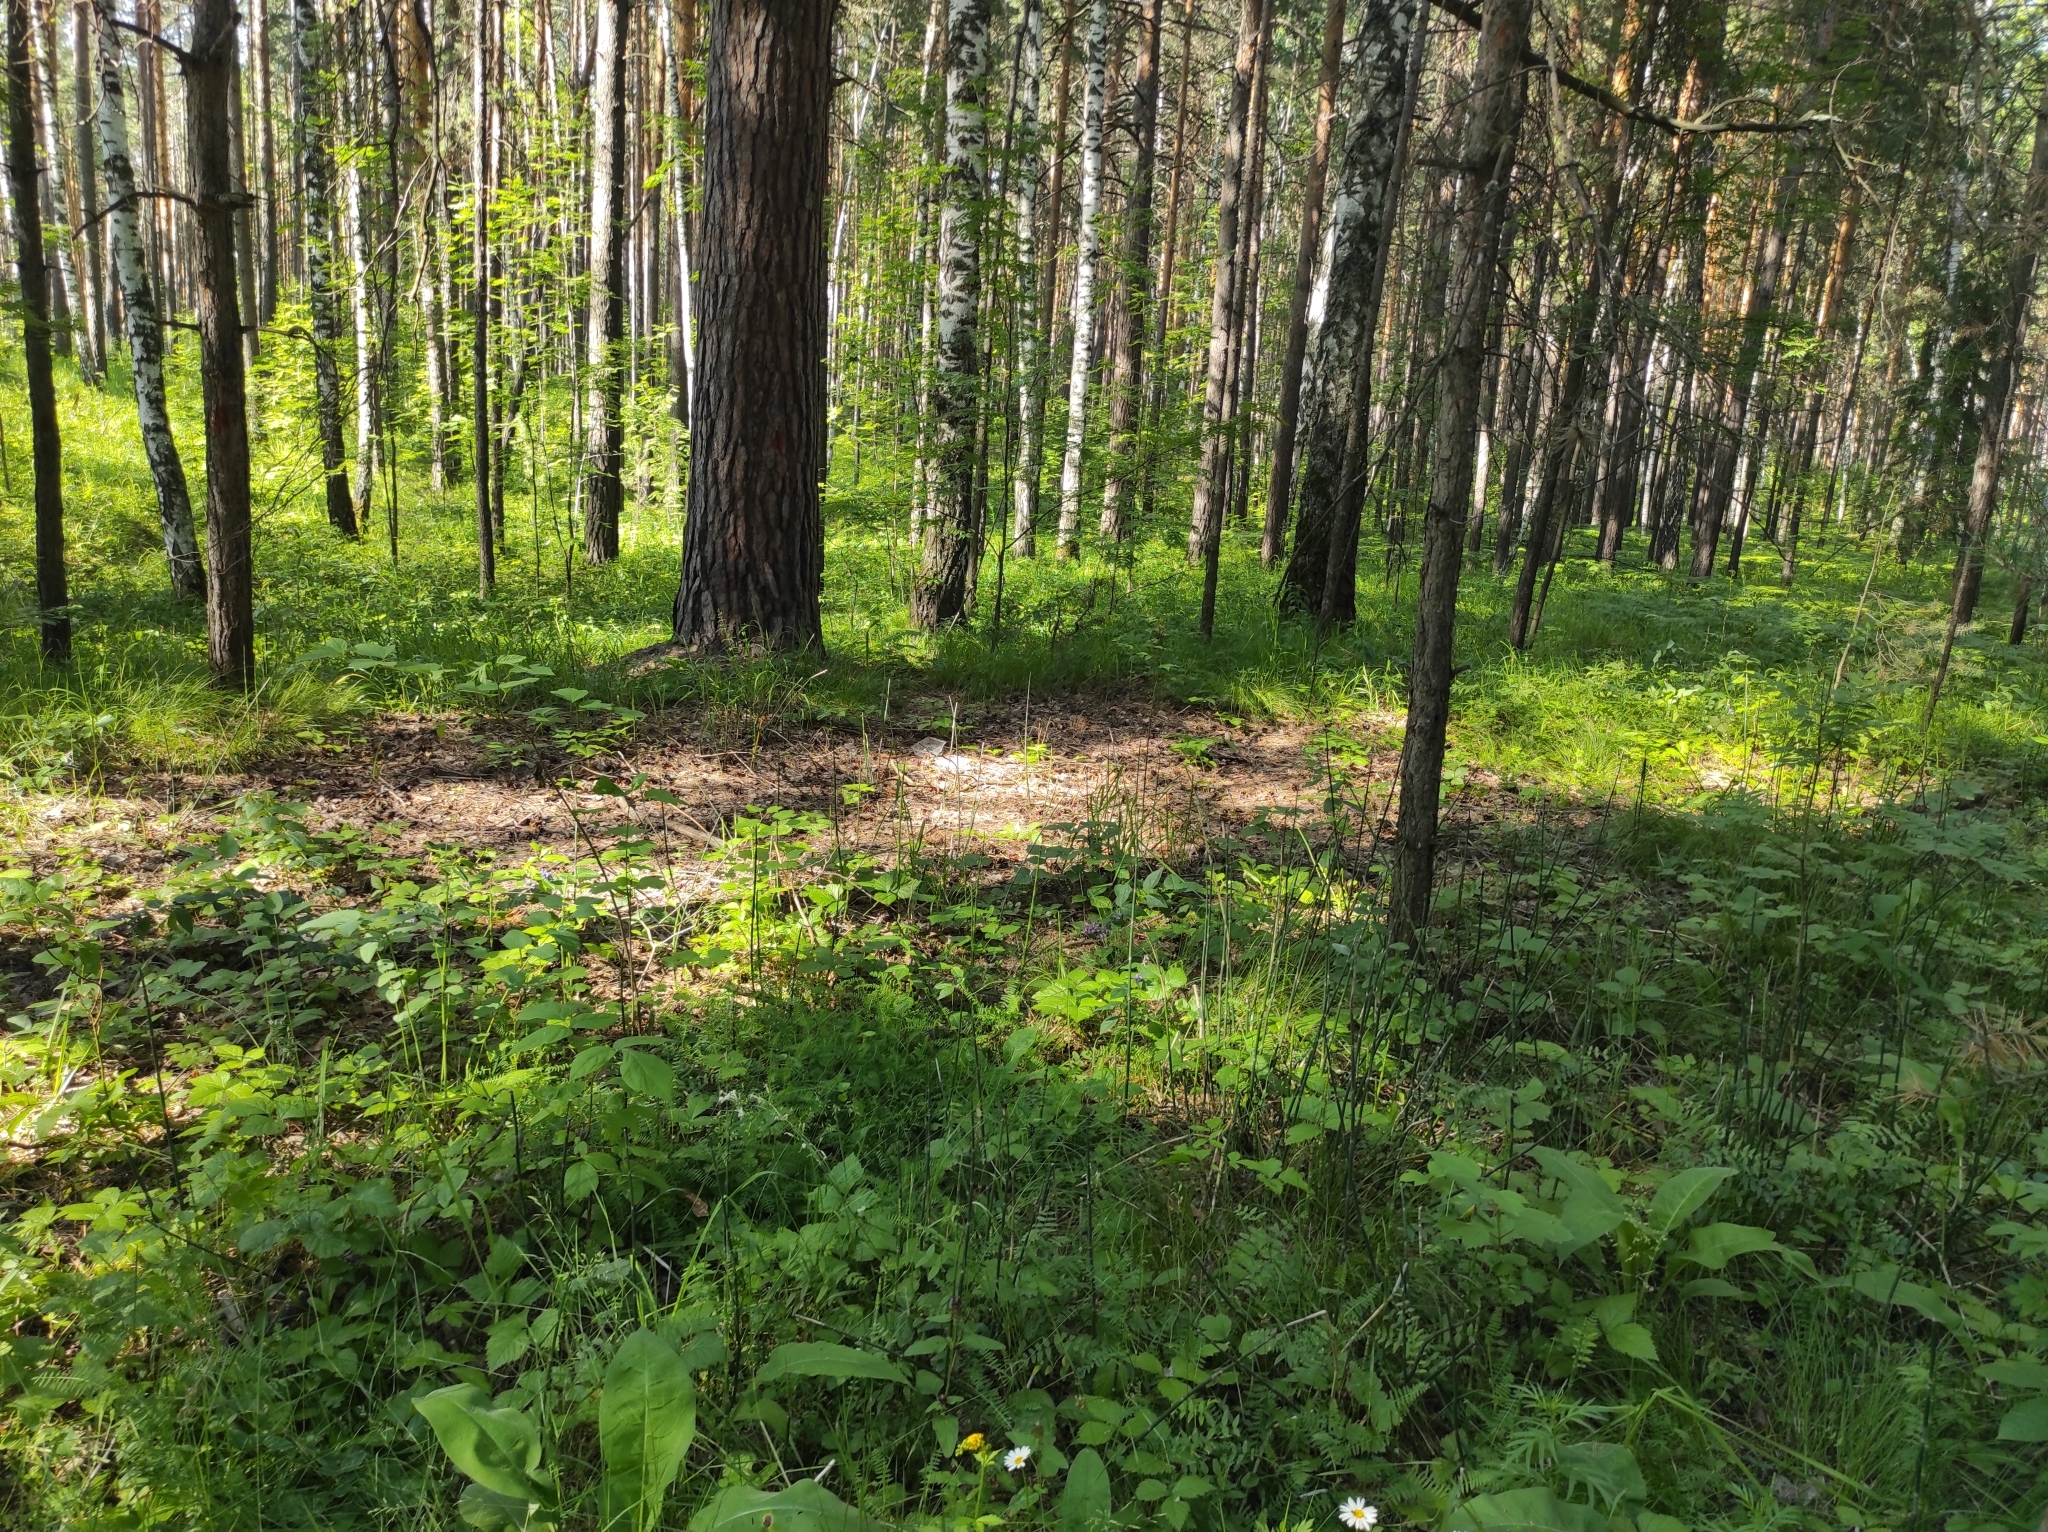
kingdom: Plantae
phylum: Tracheophyta
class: Magnoliopsida
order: Fagales
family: Betulaceae
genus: Betula
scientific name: Betula pendula
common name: Silver birch
